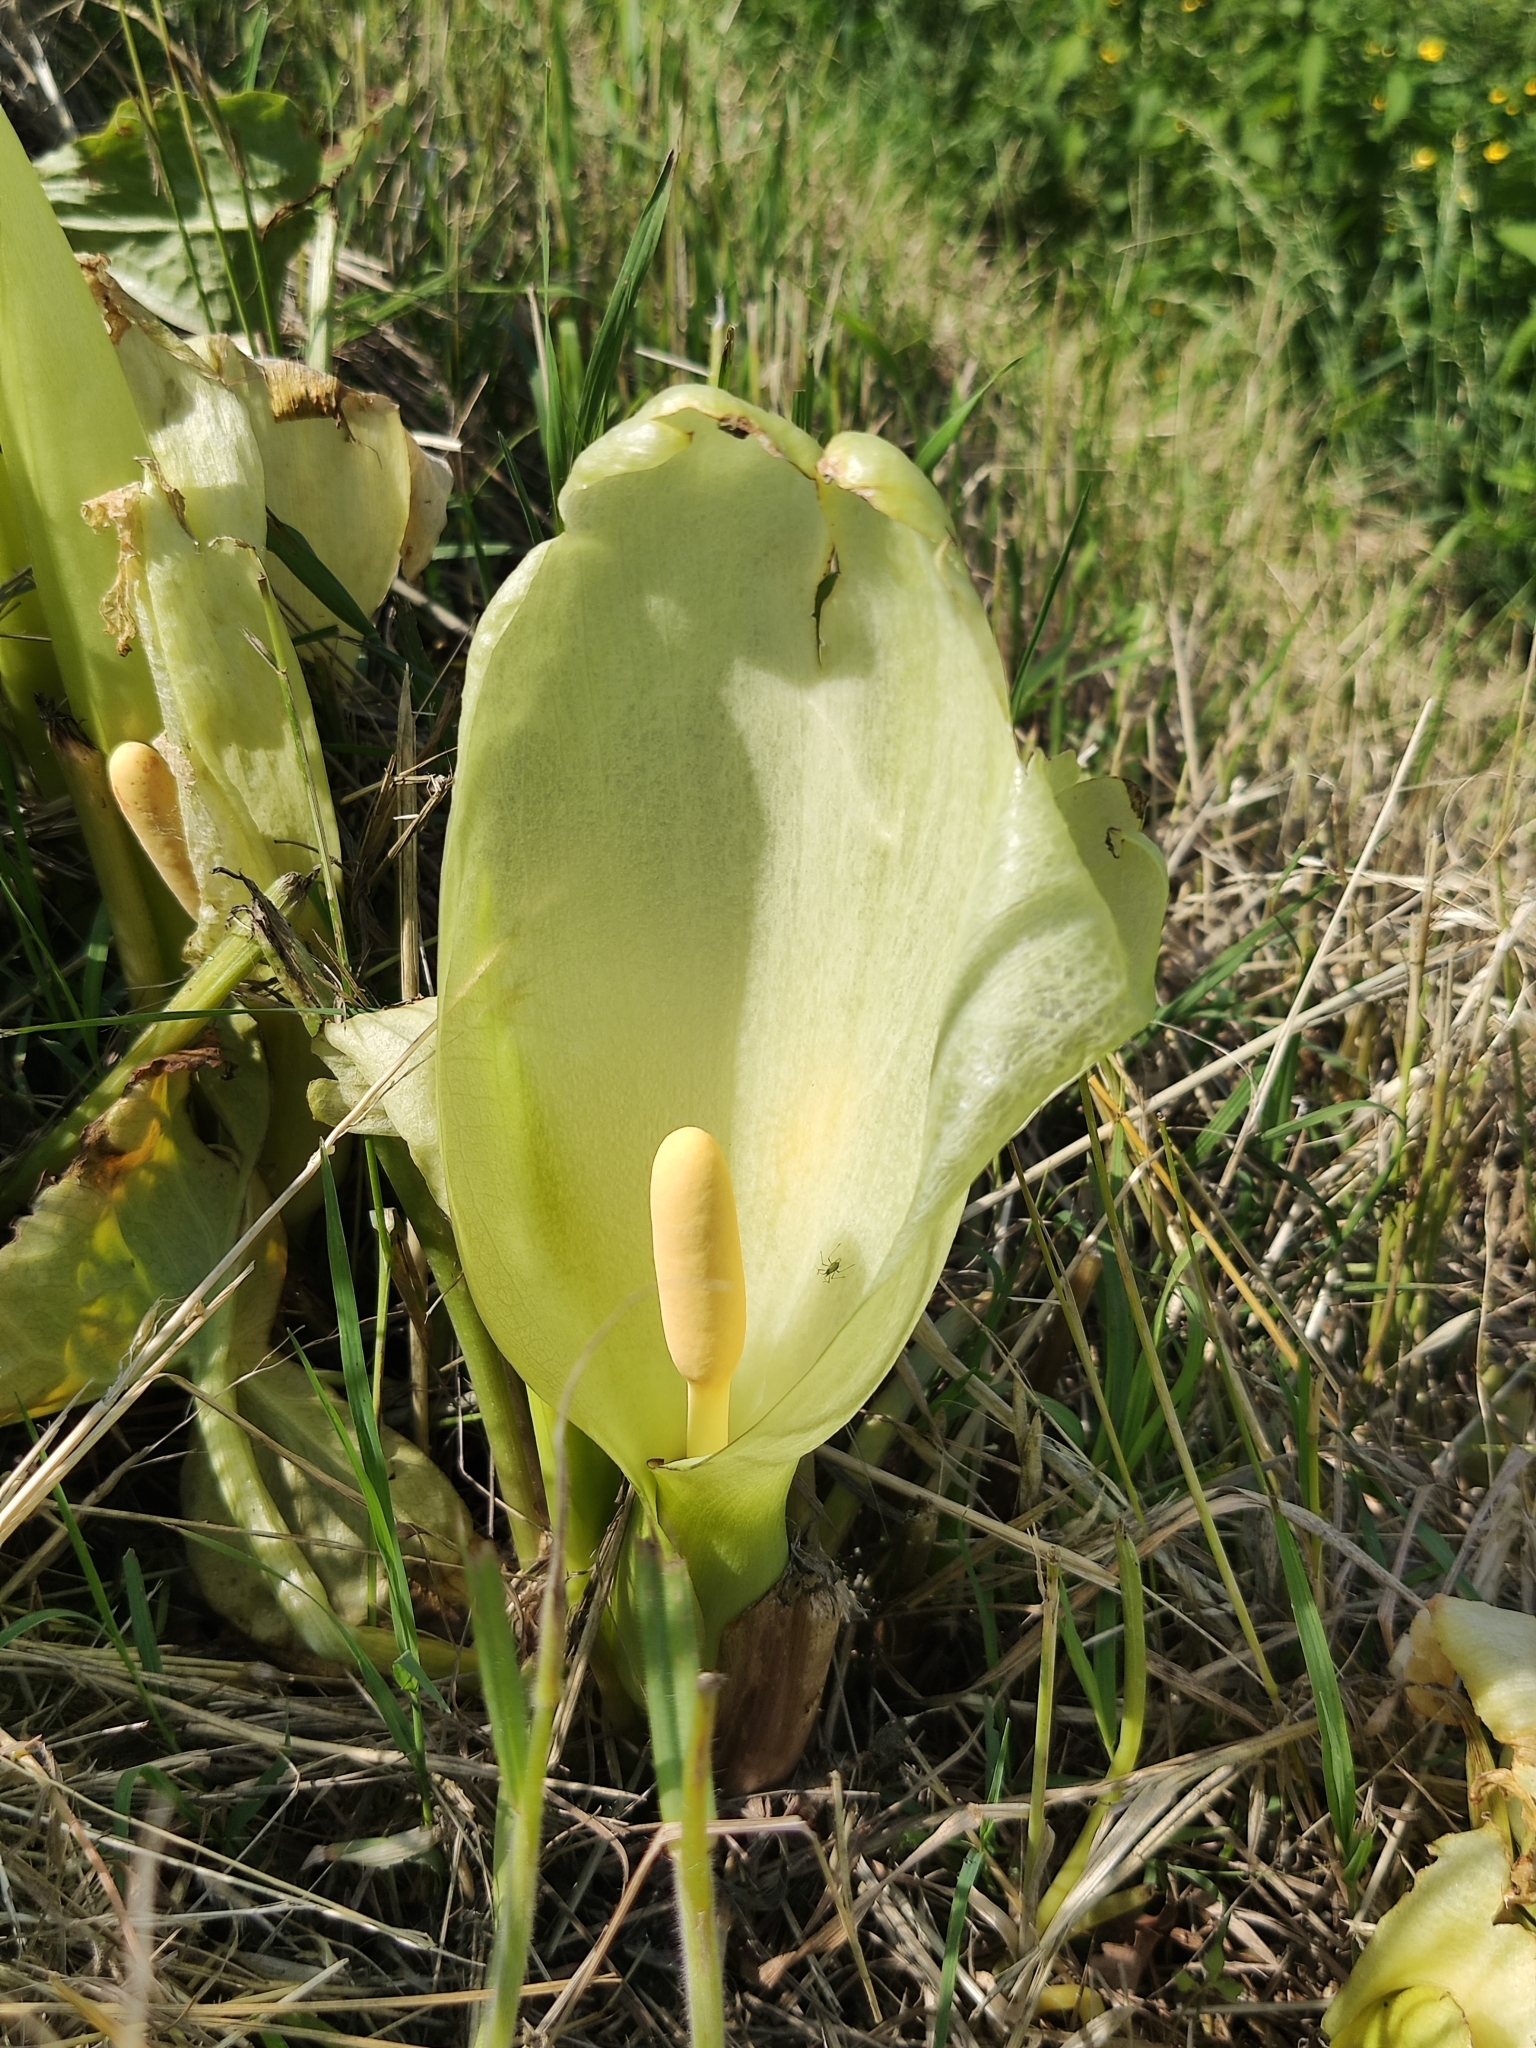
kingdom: Plantae
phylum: Tracheophyta
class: Liliopsida
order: Alismatales
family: Araceae
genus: Arum
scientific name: Arum italicum
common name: Italian lords-and-ladies
